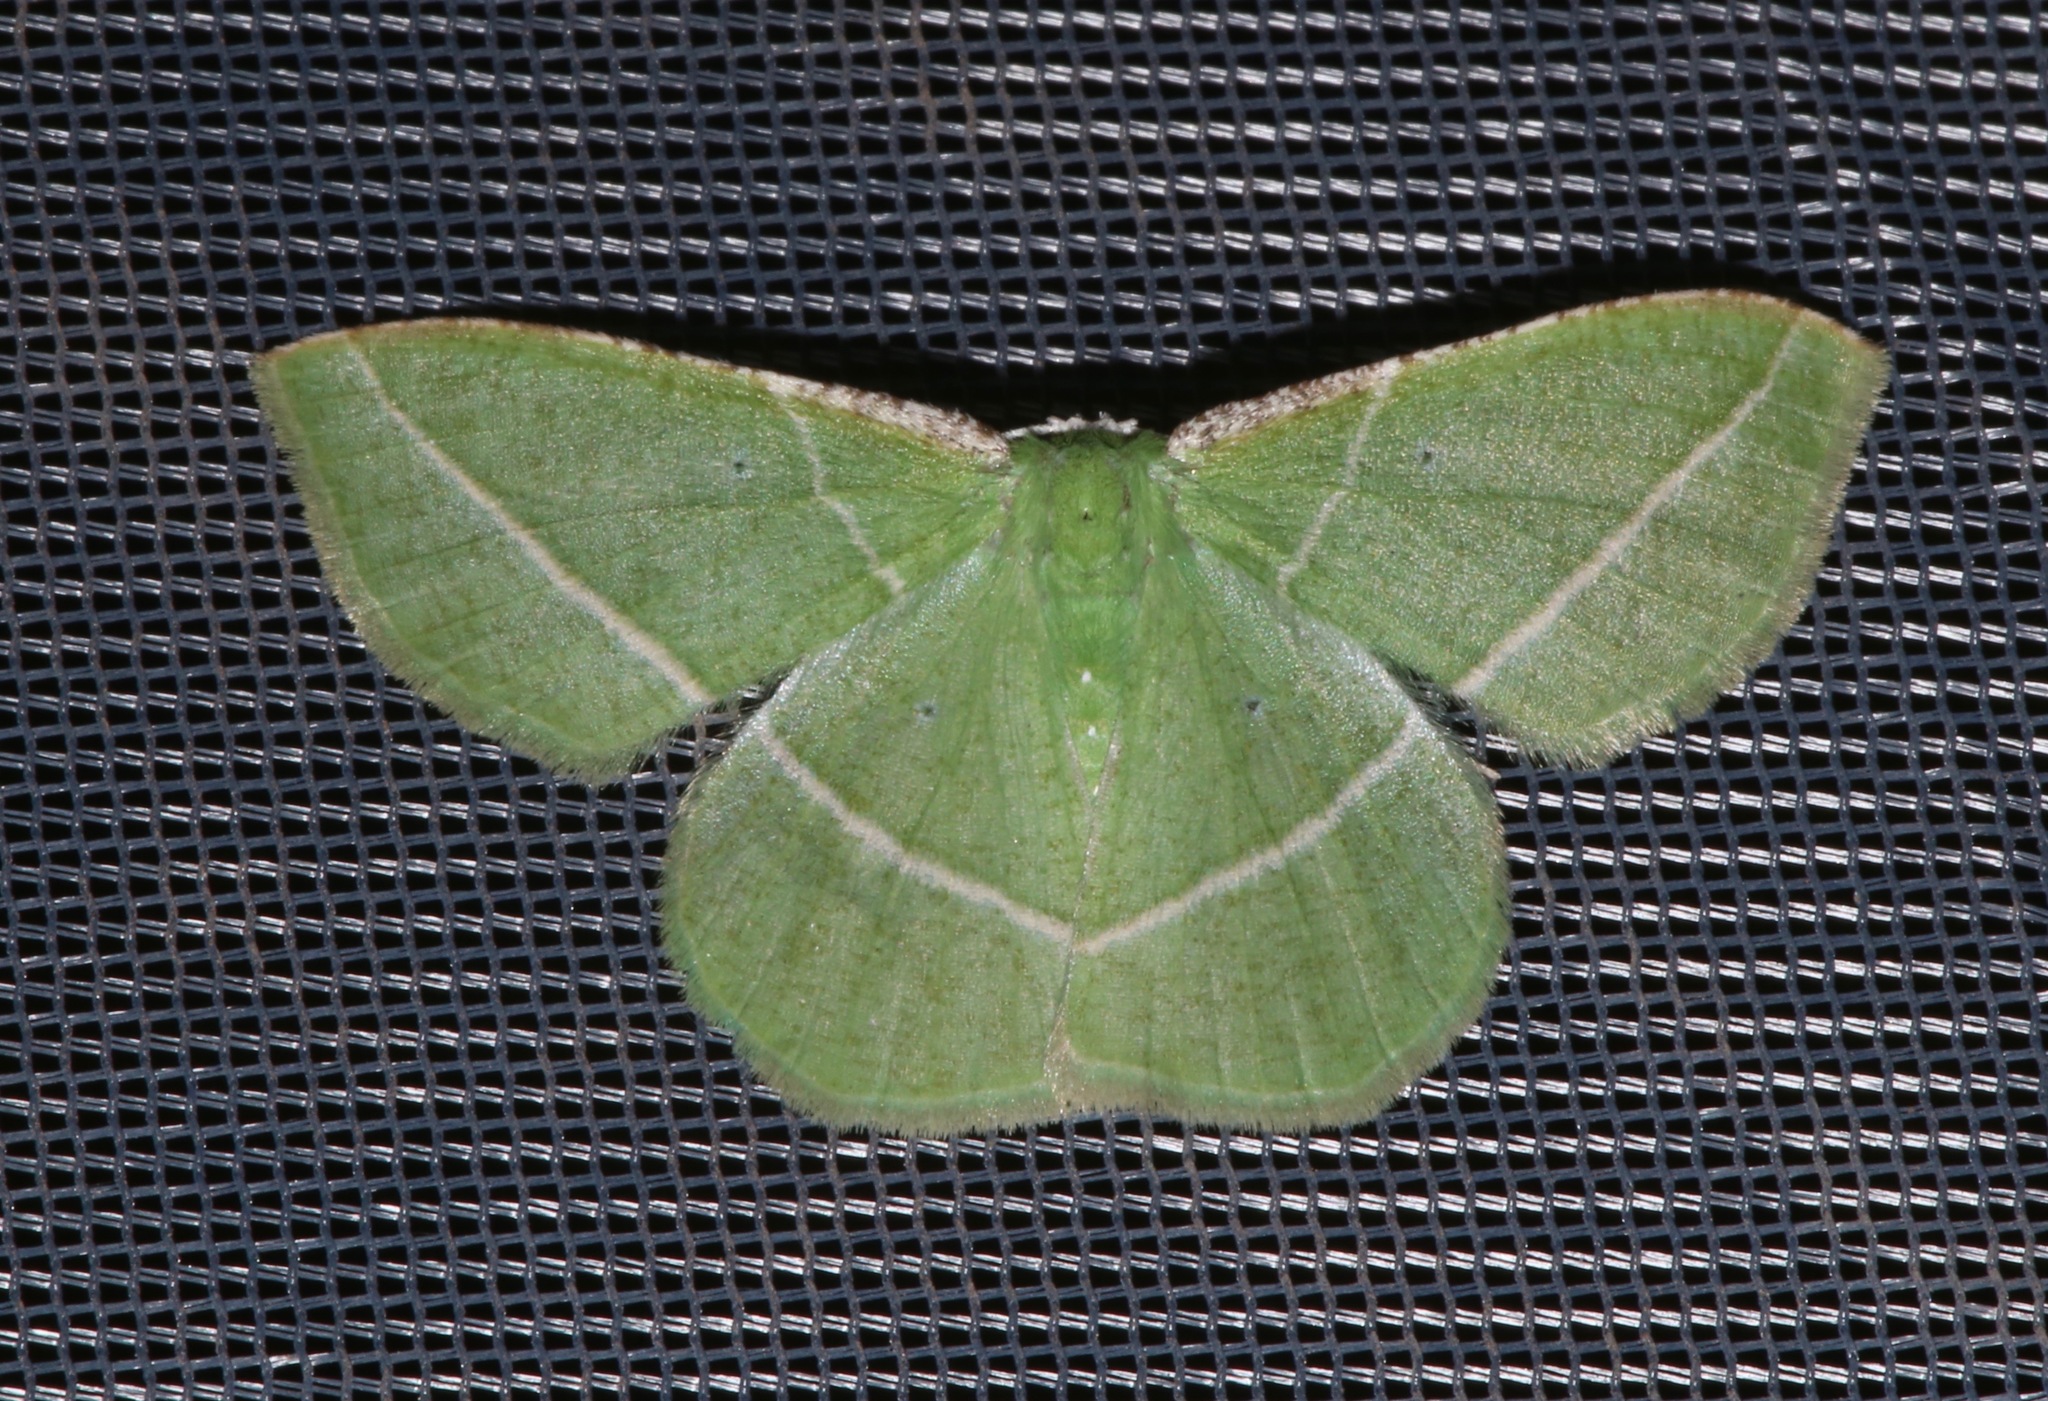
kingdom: Animalia
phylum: Arthropoda
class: Insecta
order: Lepidoptera
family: Geometridae
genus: Dichorda
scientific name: Dichorda rectaria
